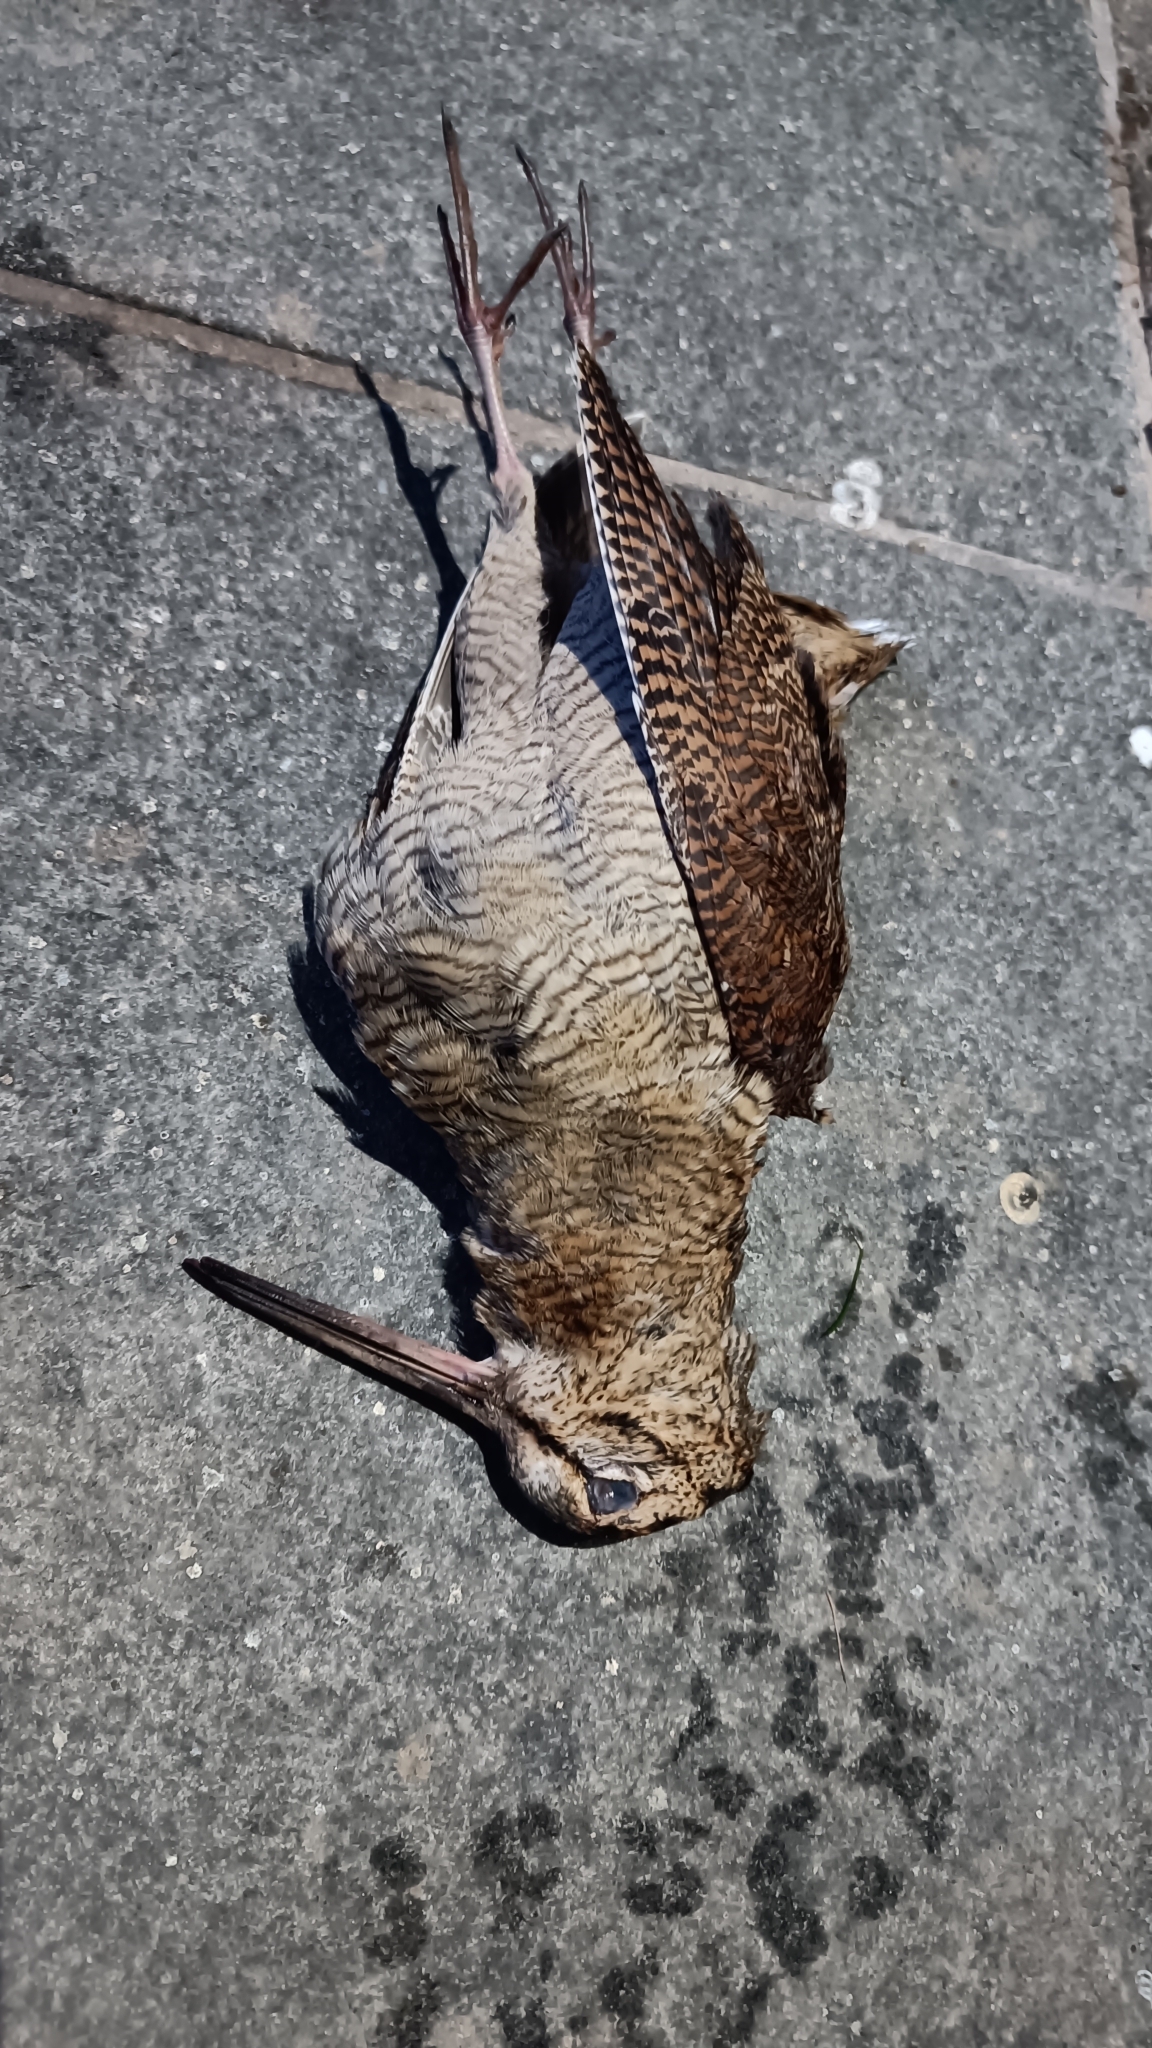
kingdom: Animalia
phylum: Chordata
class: Aves
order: Charadriiformes
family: Scolopacidae
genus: Scolopax
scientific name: Scolopax rusticola
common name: Eurasian woodcock
